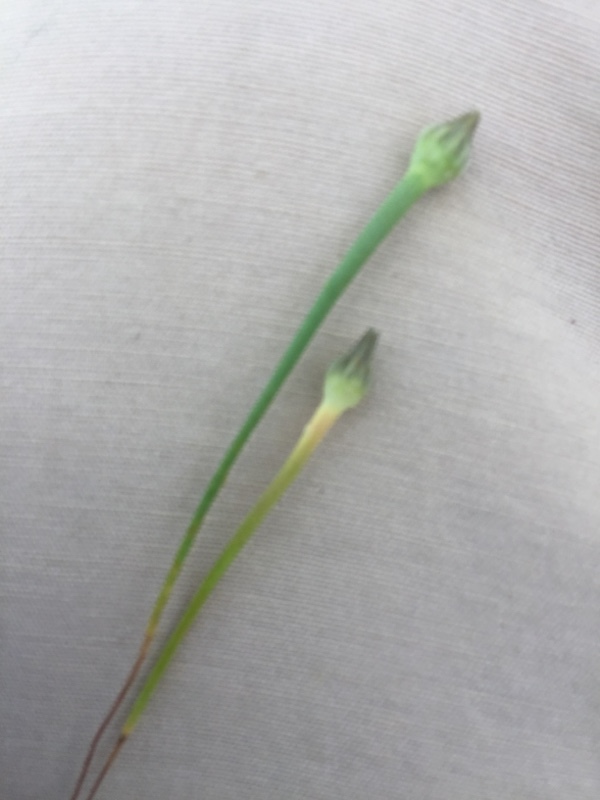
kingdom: Plantae
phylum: Tracheophyta
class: Magnoliopsida
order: Asterales
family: Asteraceae
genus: Arnoseris
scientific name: Arnoseris minima
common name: Lamb's succory
